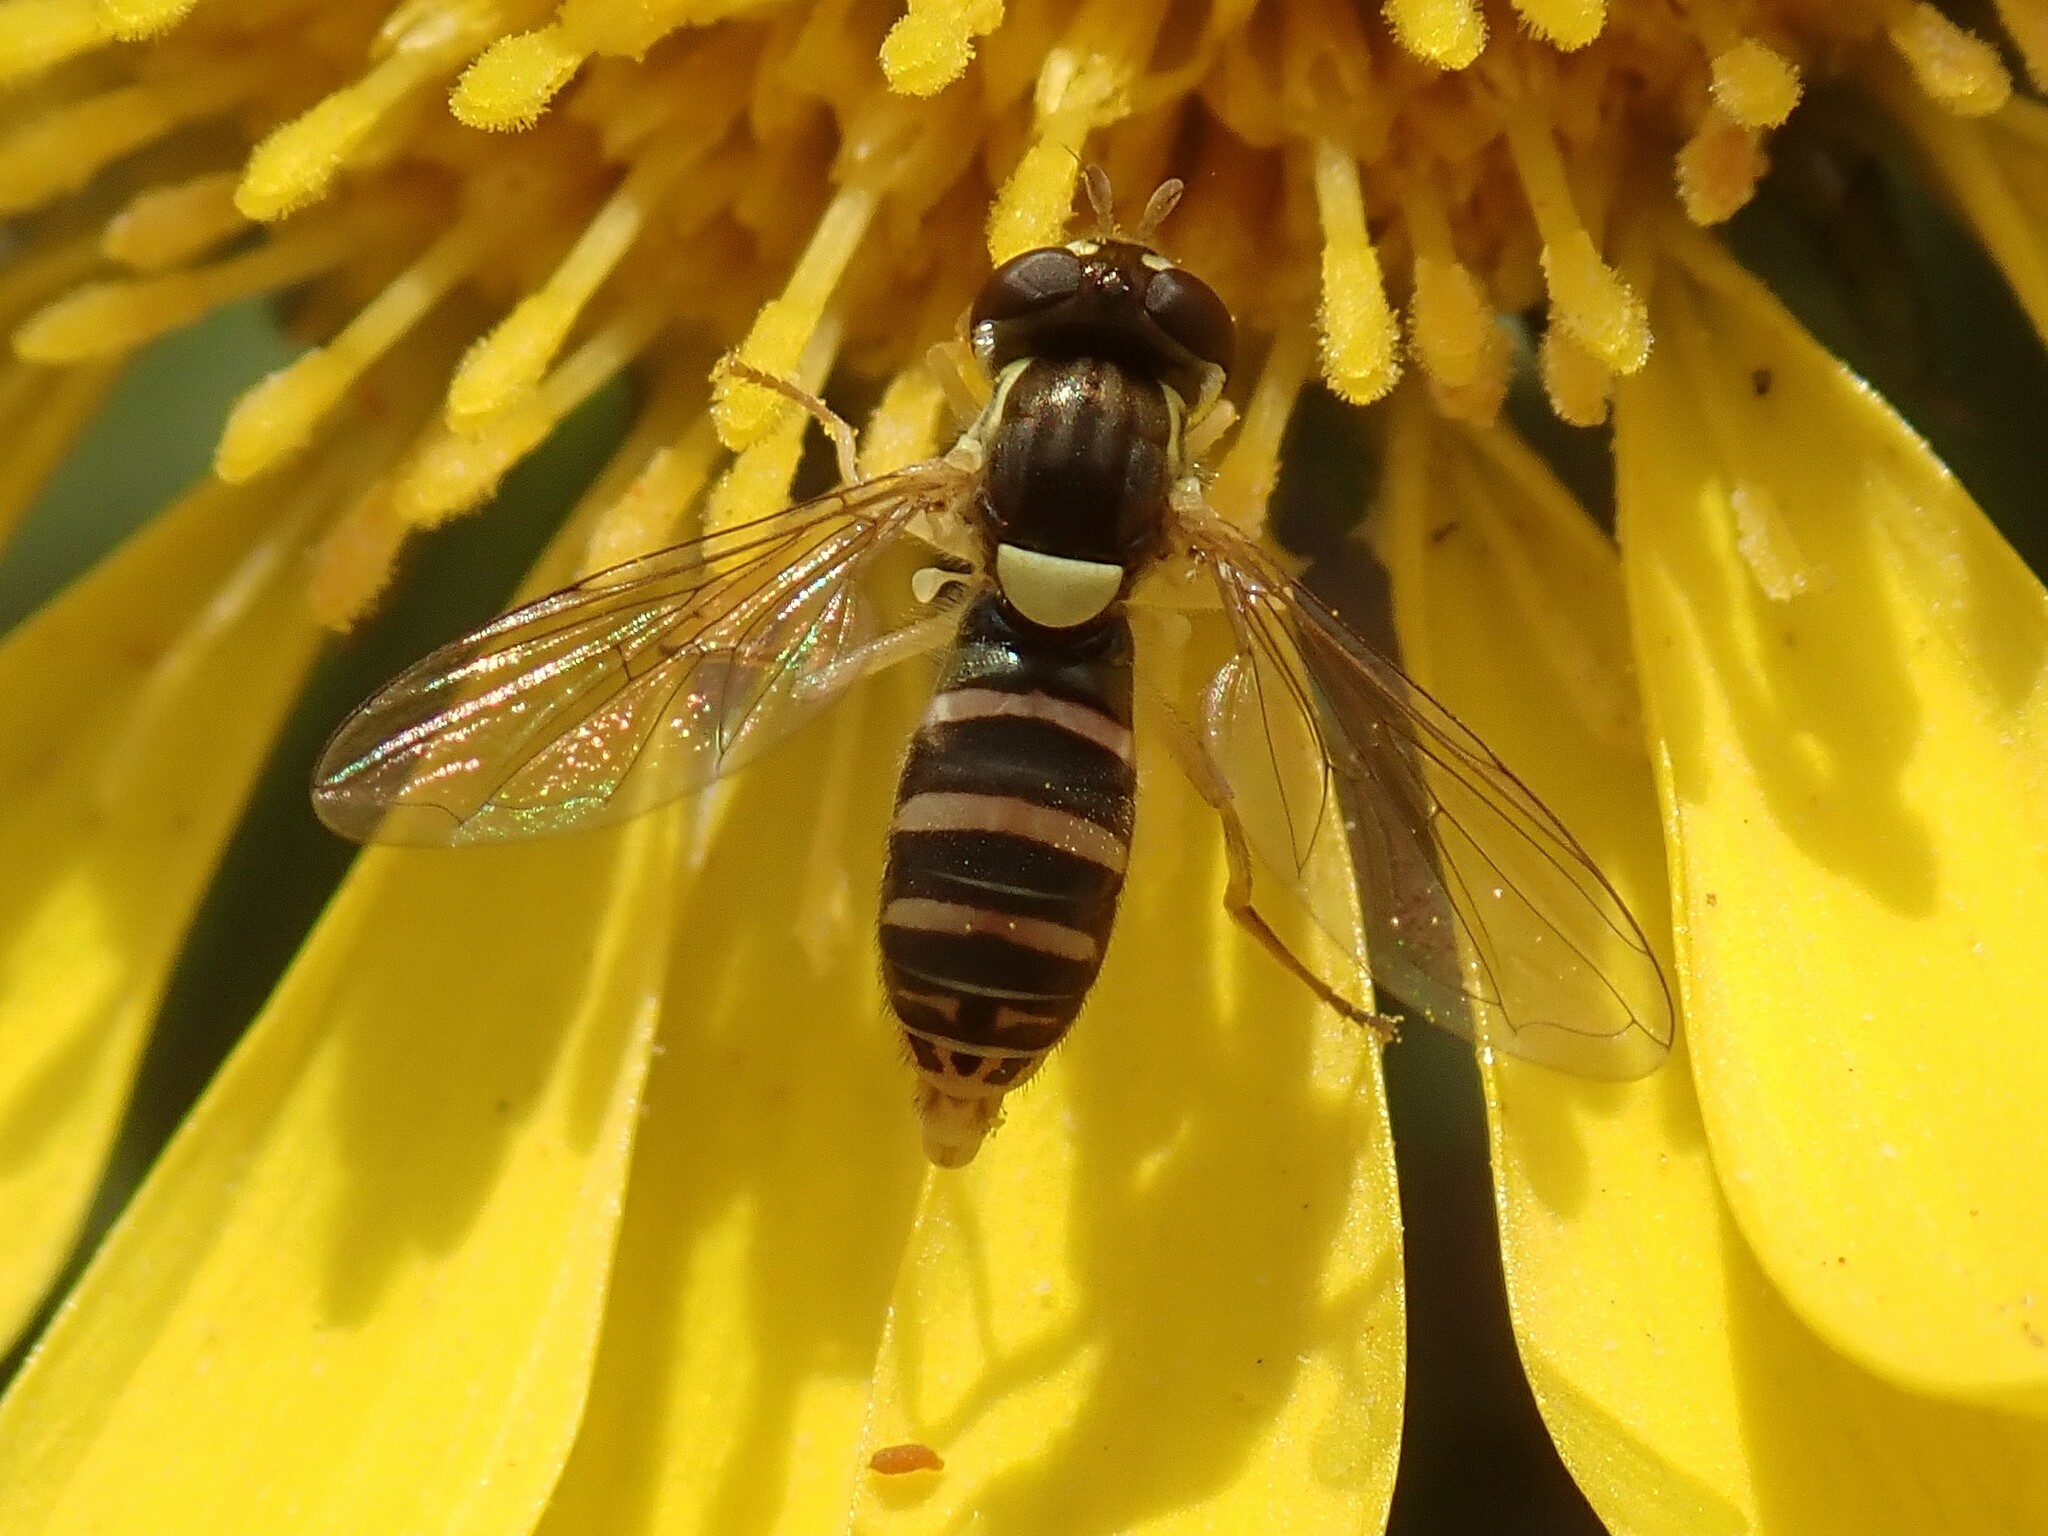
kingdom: Animalia
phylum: Arthropoda
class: Insecta
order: Diptera
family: Syrphidae
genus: Sphaerophoria
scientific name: Sphaerophoria sulphuripes
